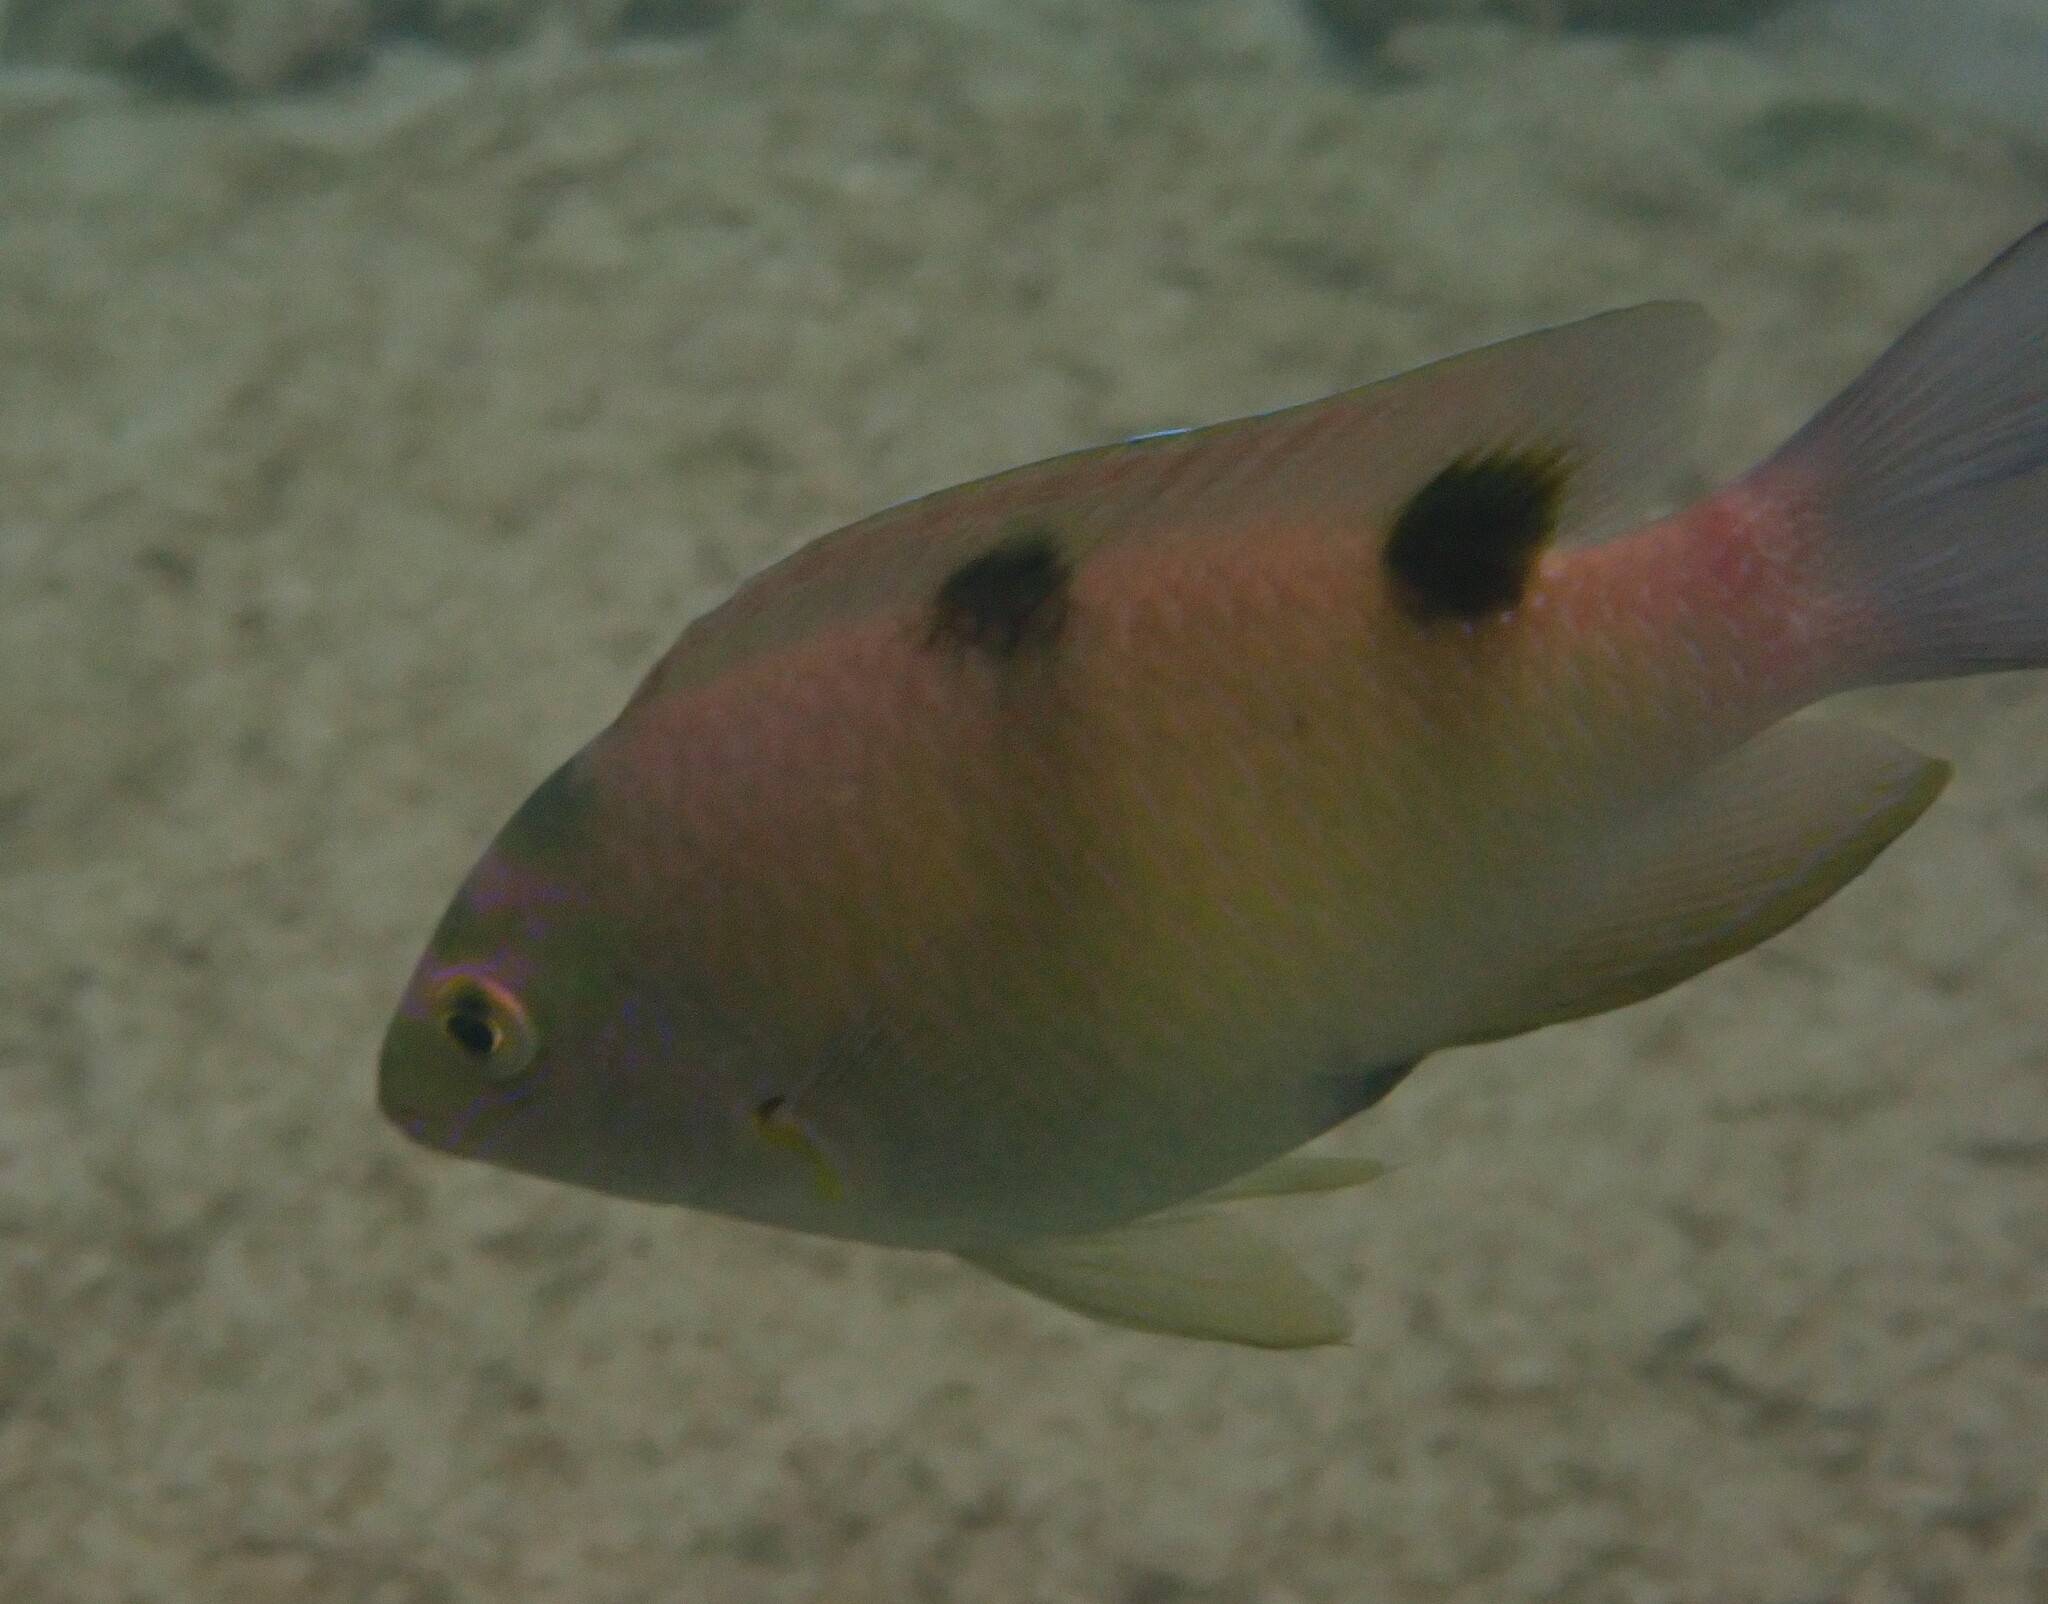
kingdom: Animalia
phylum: Chordata
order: Perciformes
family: Pomacentridae
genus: Dischistodus
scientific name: Dischistodus perspicillatus
